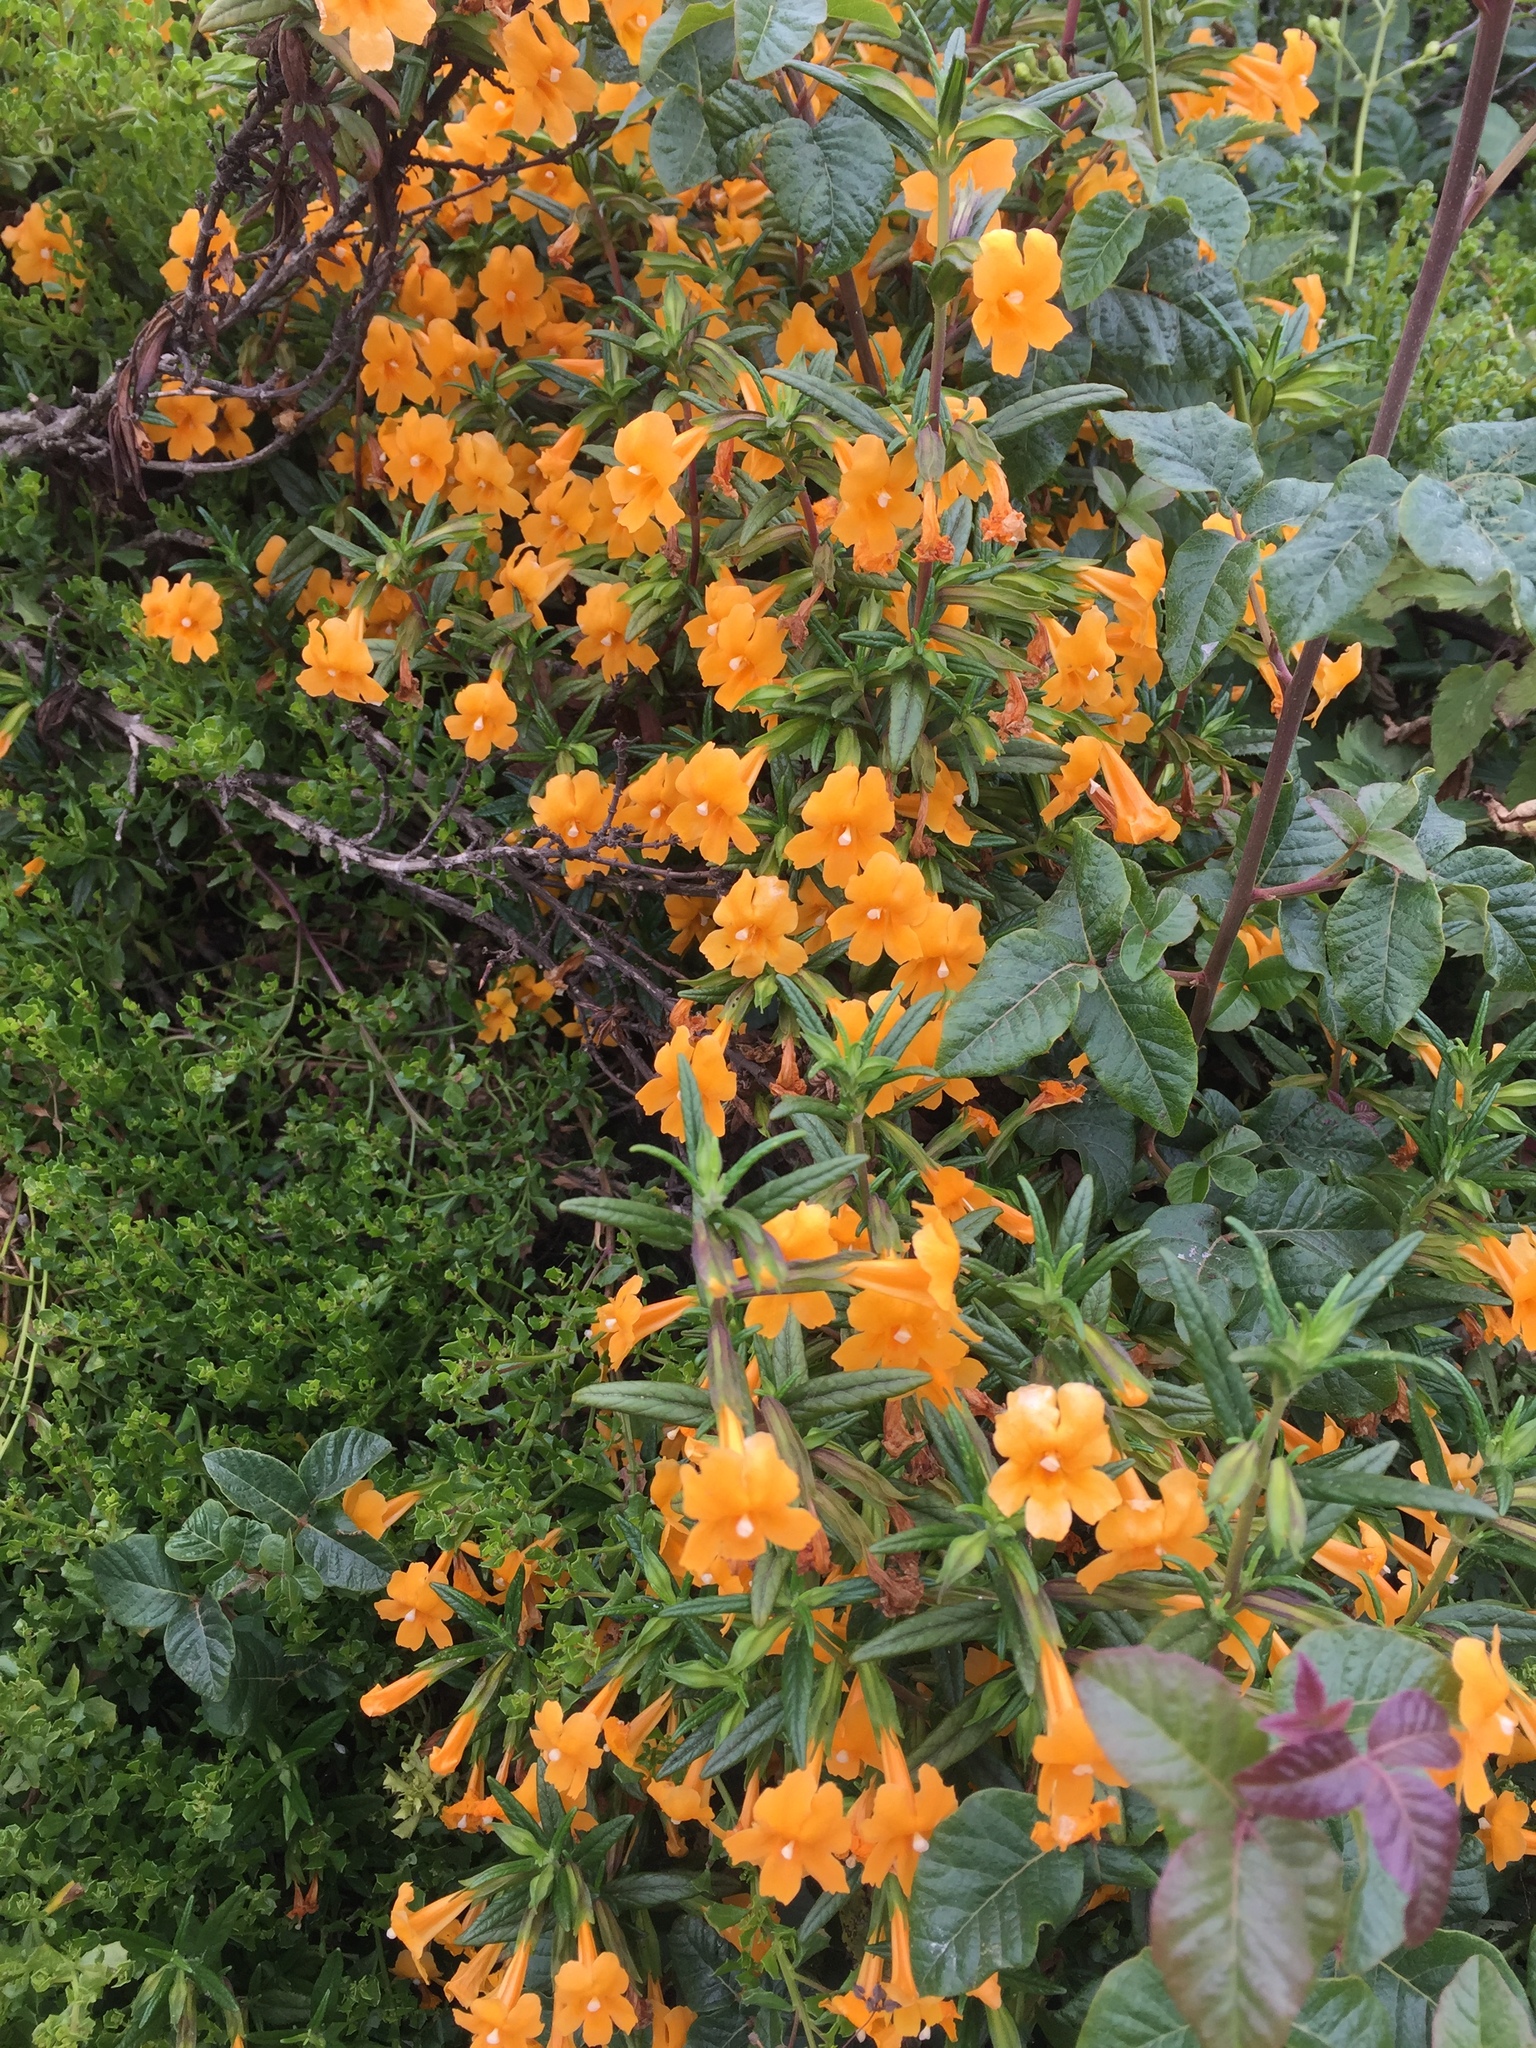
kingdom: Plantae
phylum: Tracheophyta
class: Magnoliopsida
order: Lamiales
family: Phrymaceae
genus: Diplacus
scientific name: Diplacus aurantiacus
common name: Bush monkey-flower
